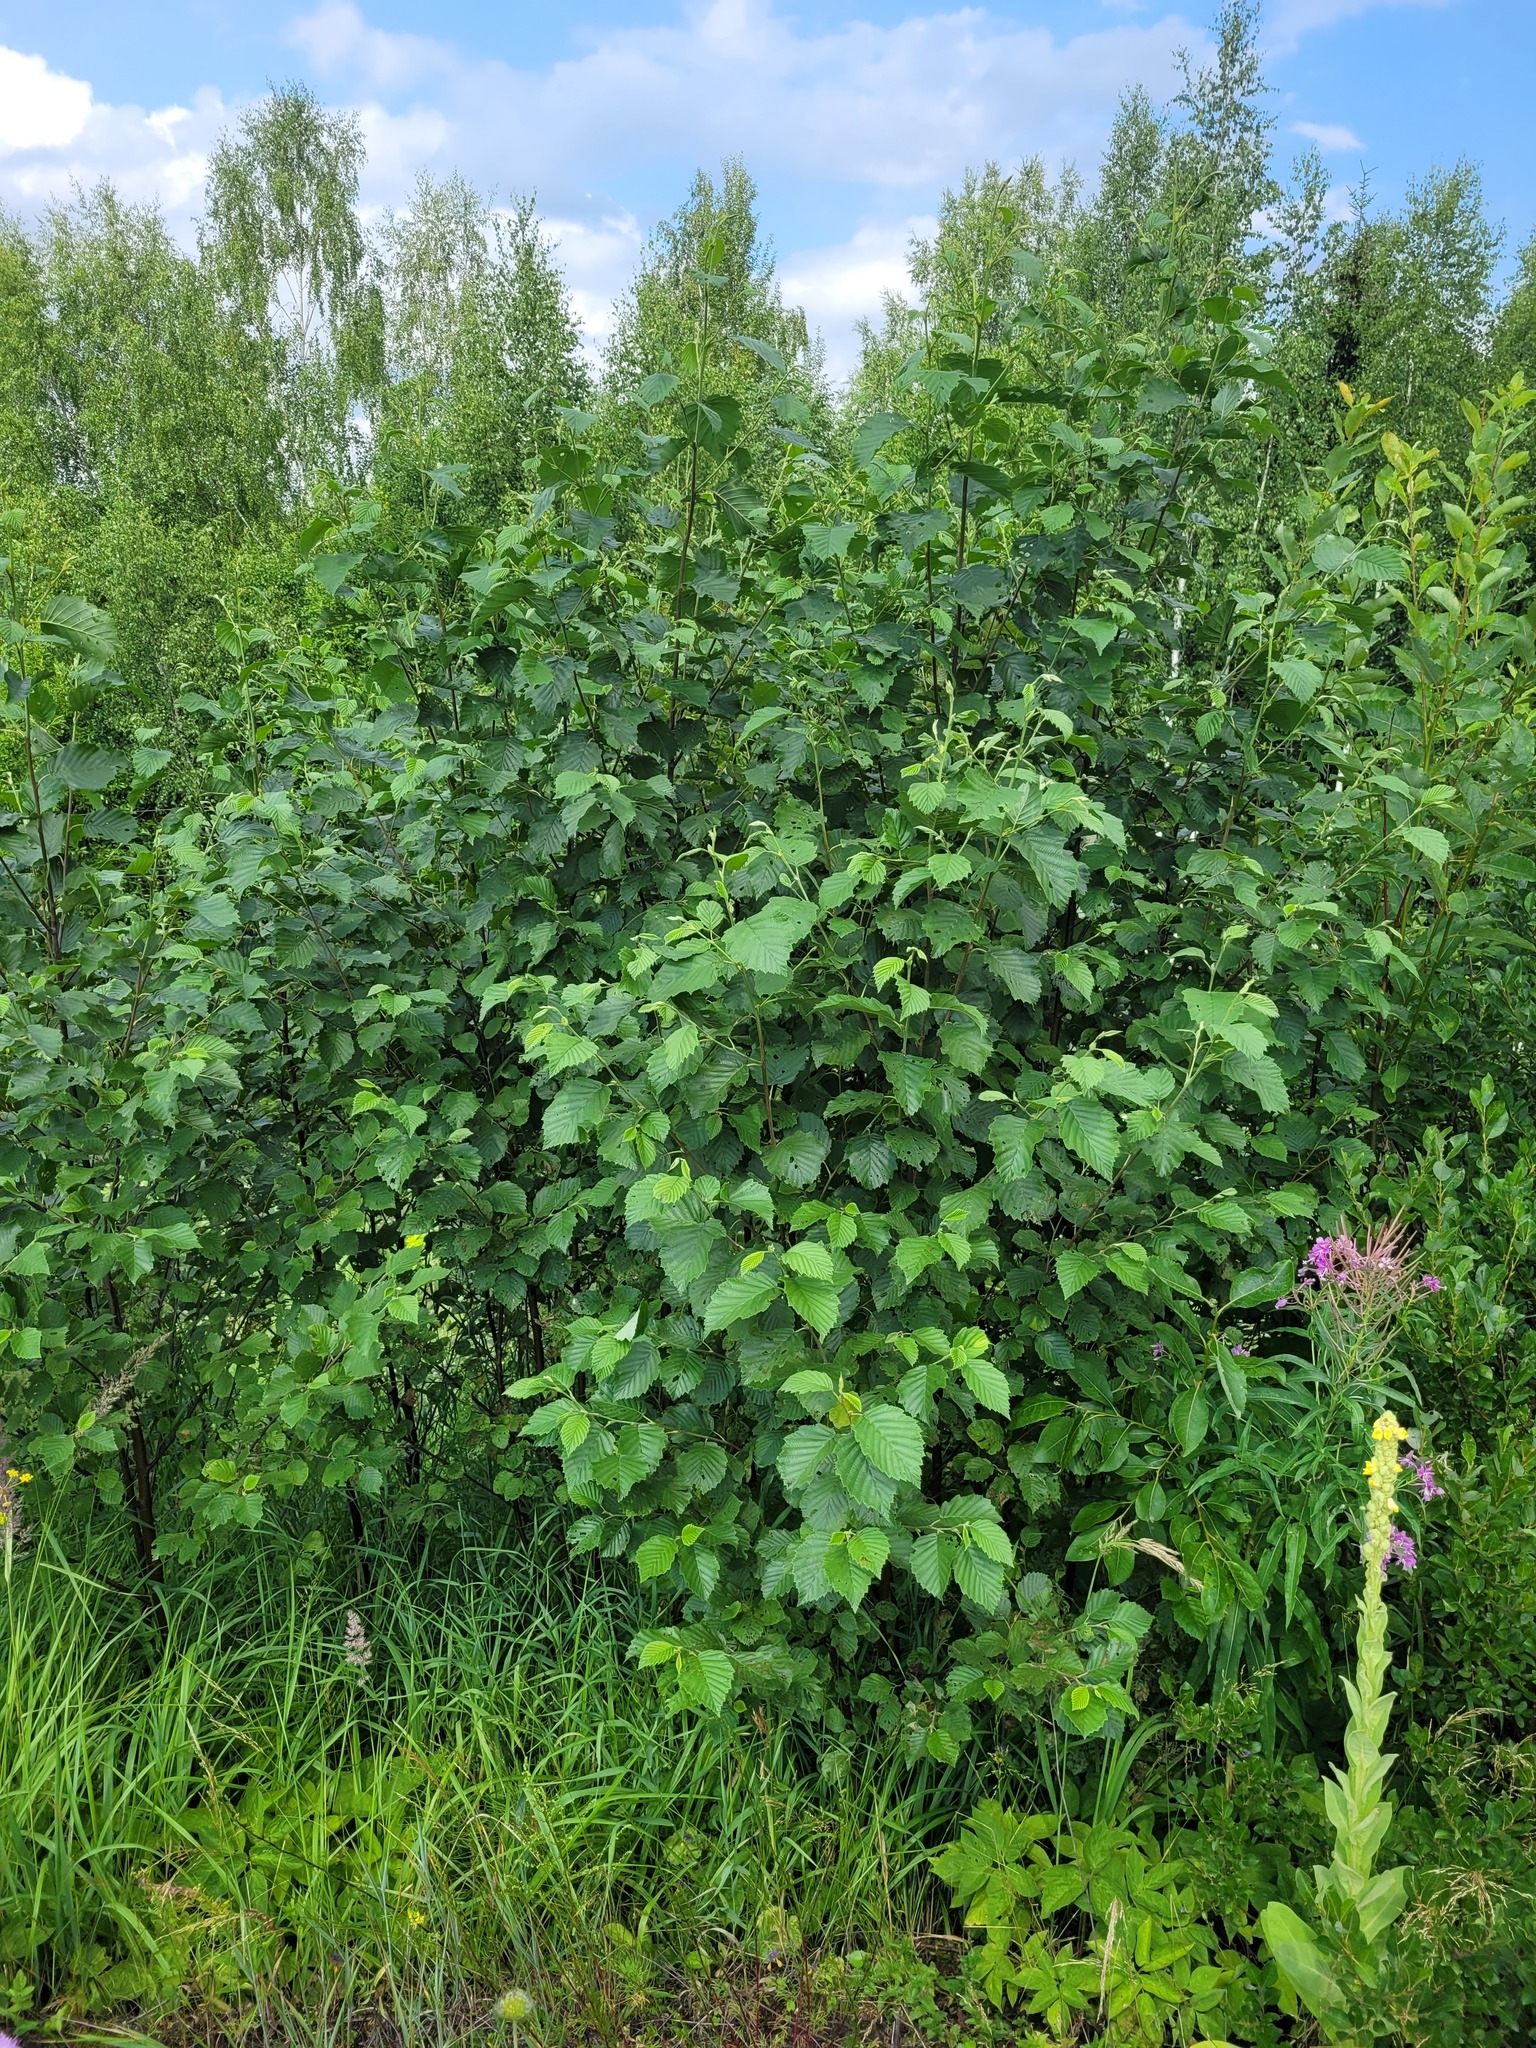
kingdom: Plantae
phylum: Tracheophyta
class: Magnoliopsida
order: Fagales
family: Betulaceae
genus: Alnus
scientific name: Alnus incana
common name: Grey alder
